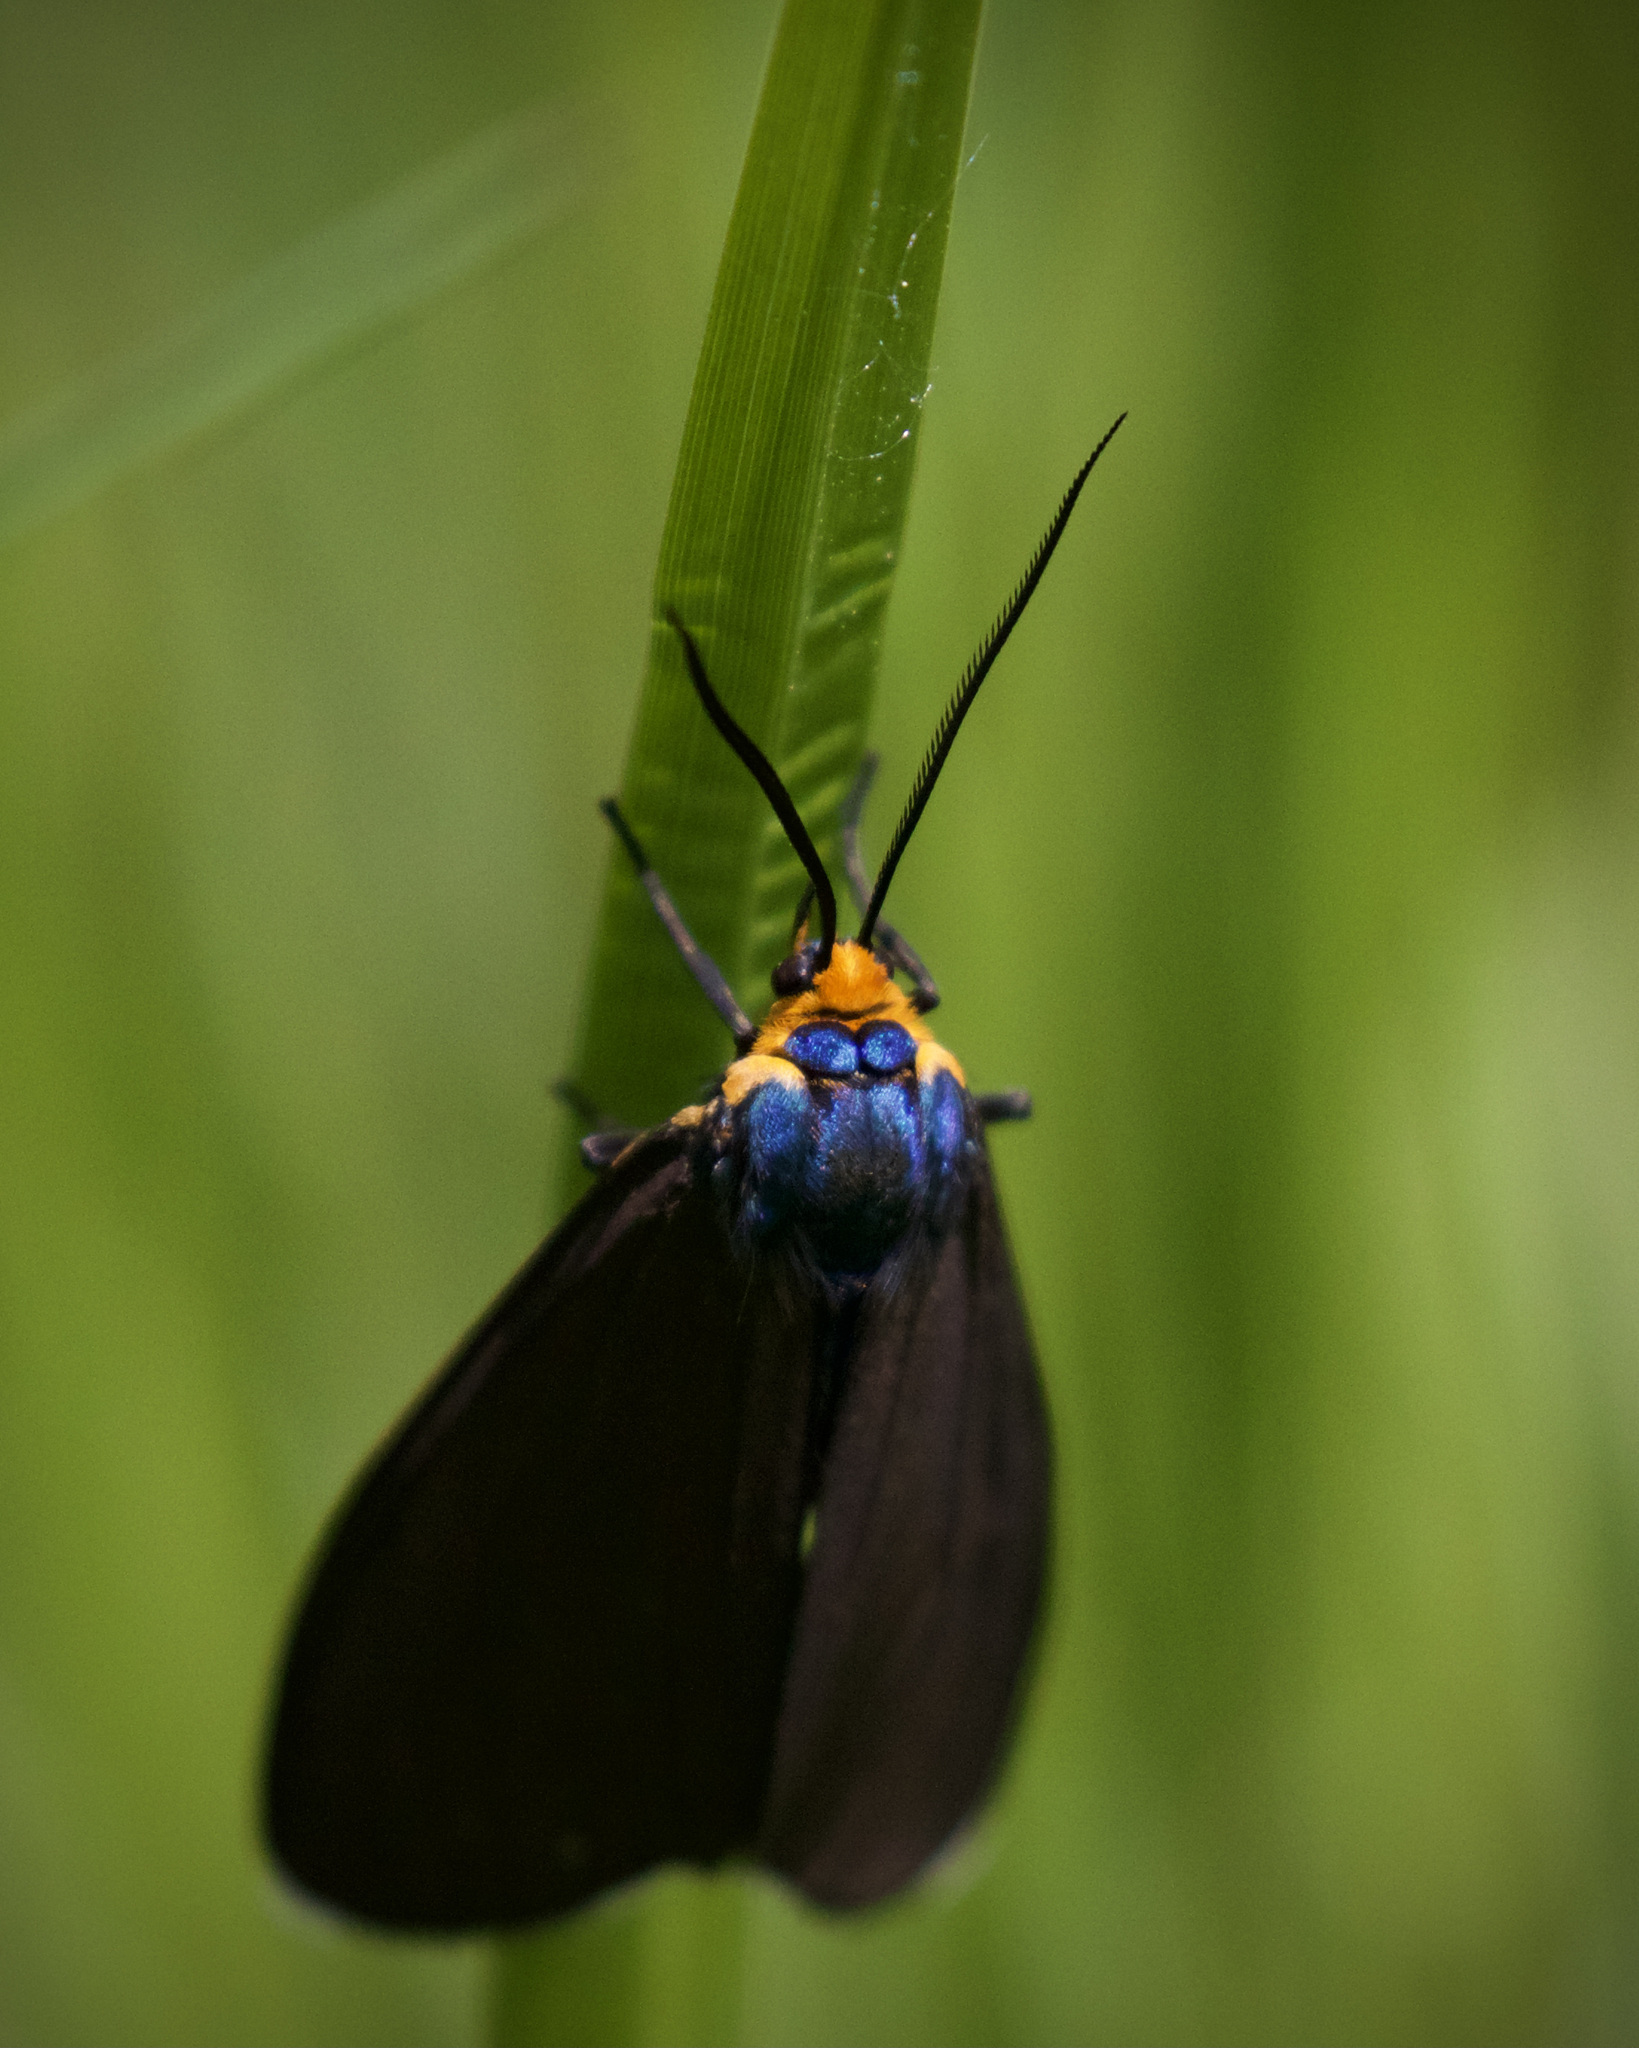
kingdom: Animalia
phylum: Arthropoda
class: Insecta
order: Lepidoptera
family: Erebidae
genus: Ctenucha
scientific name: Ctenucha virginica
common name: Virginia ctenucha moth
